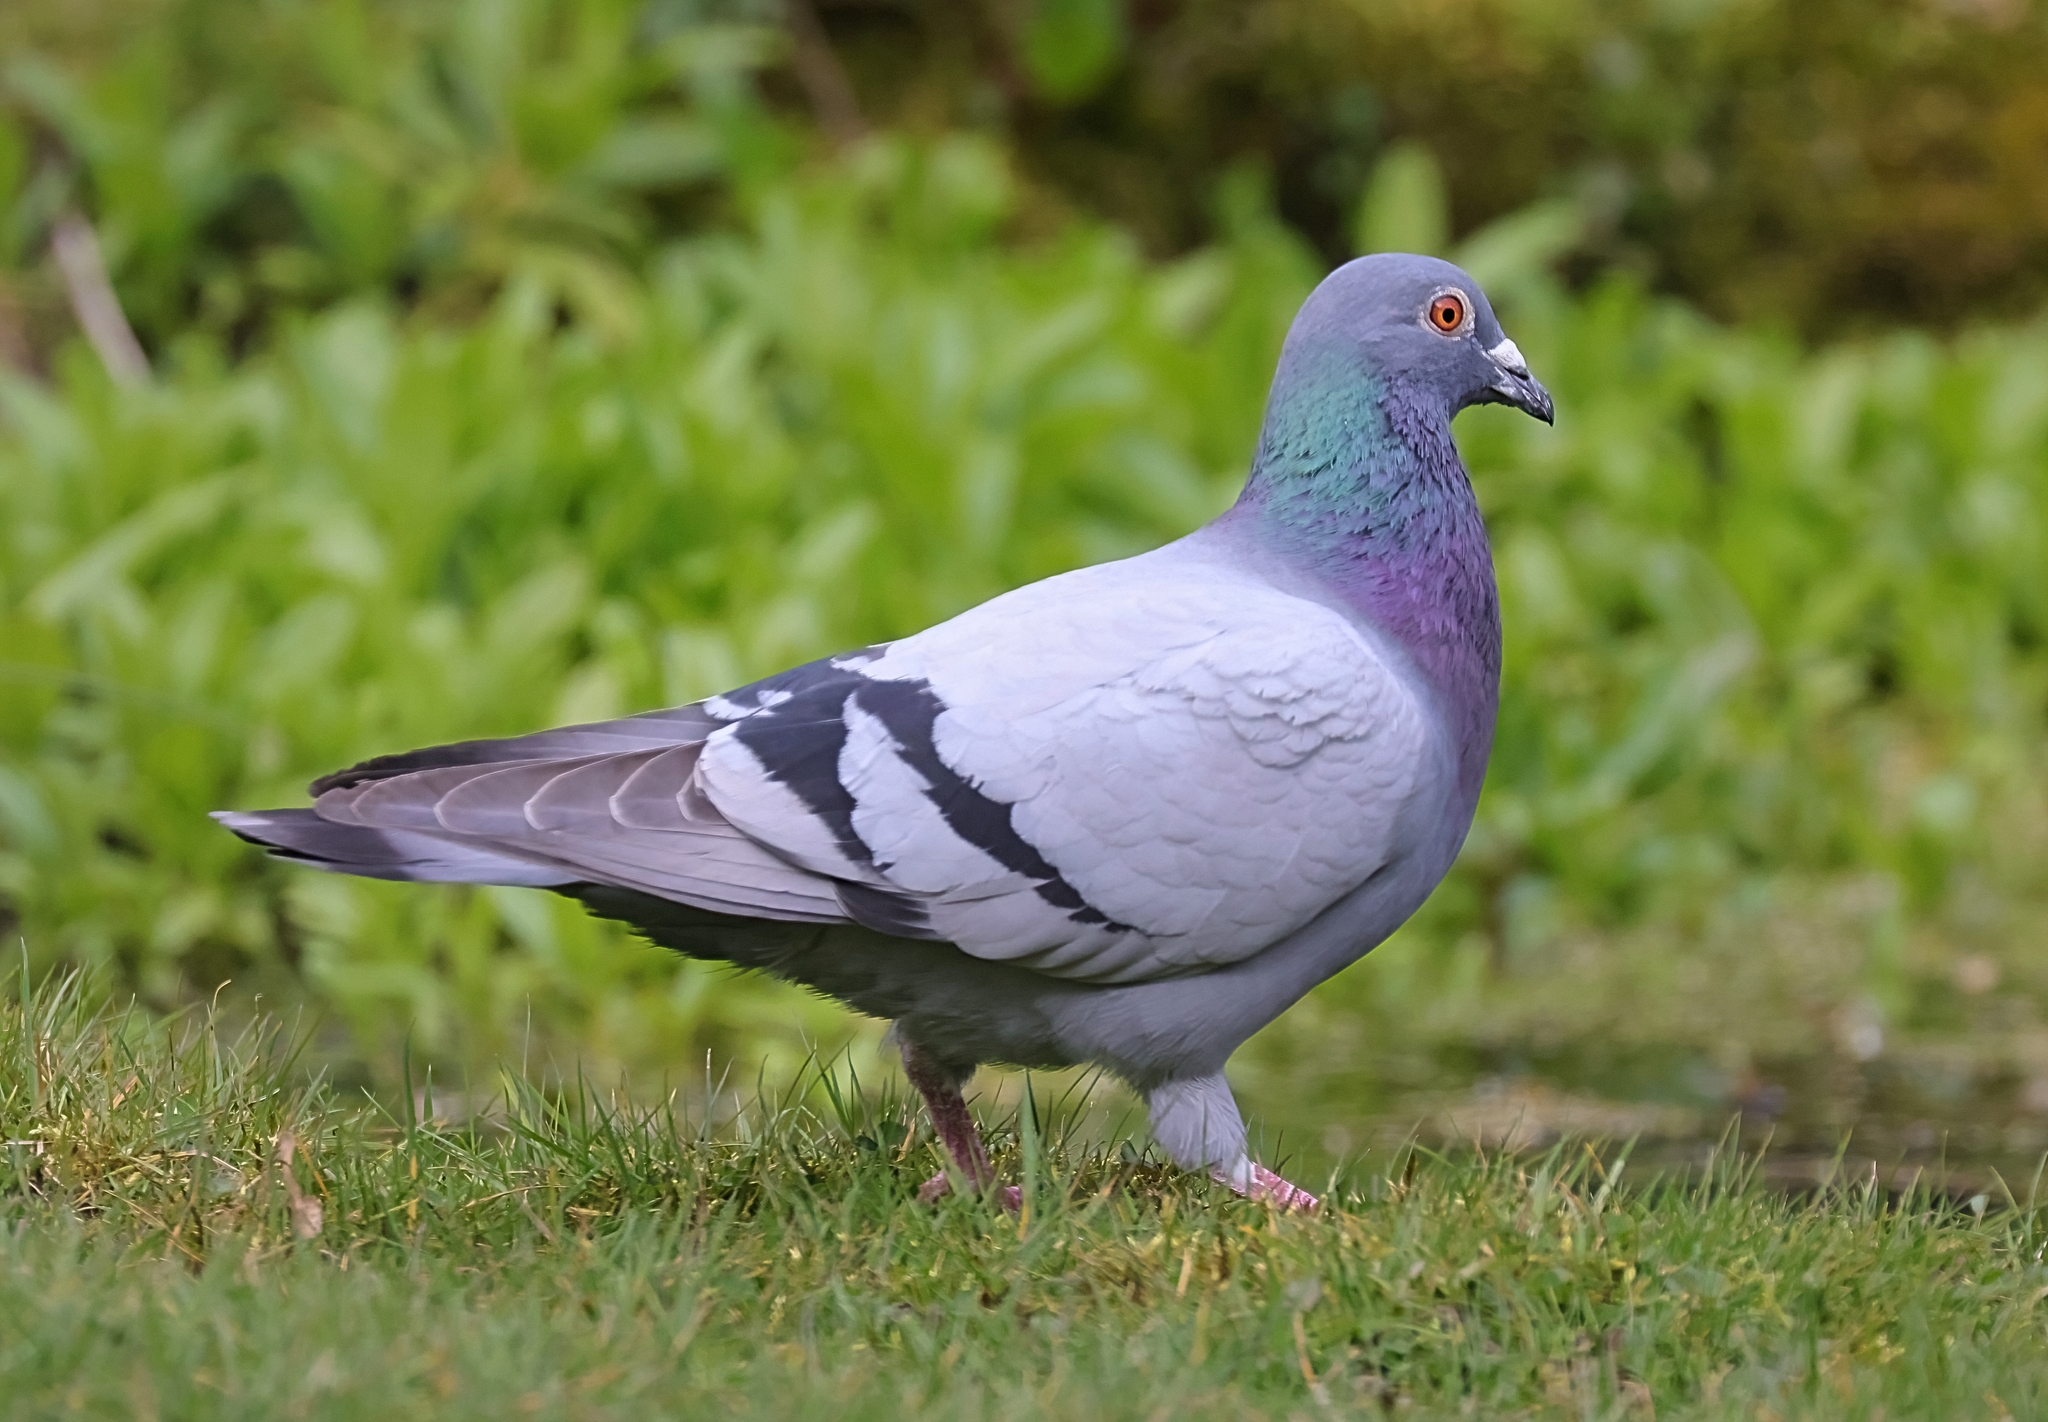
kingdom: Animalia
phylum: Chordata
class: Aves
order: Columbiformes
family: Columbidae
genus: Columba
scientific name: Columba livia
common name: Rock pigeon
